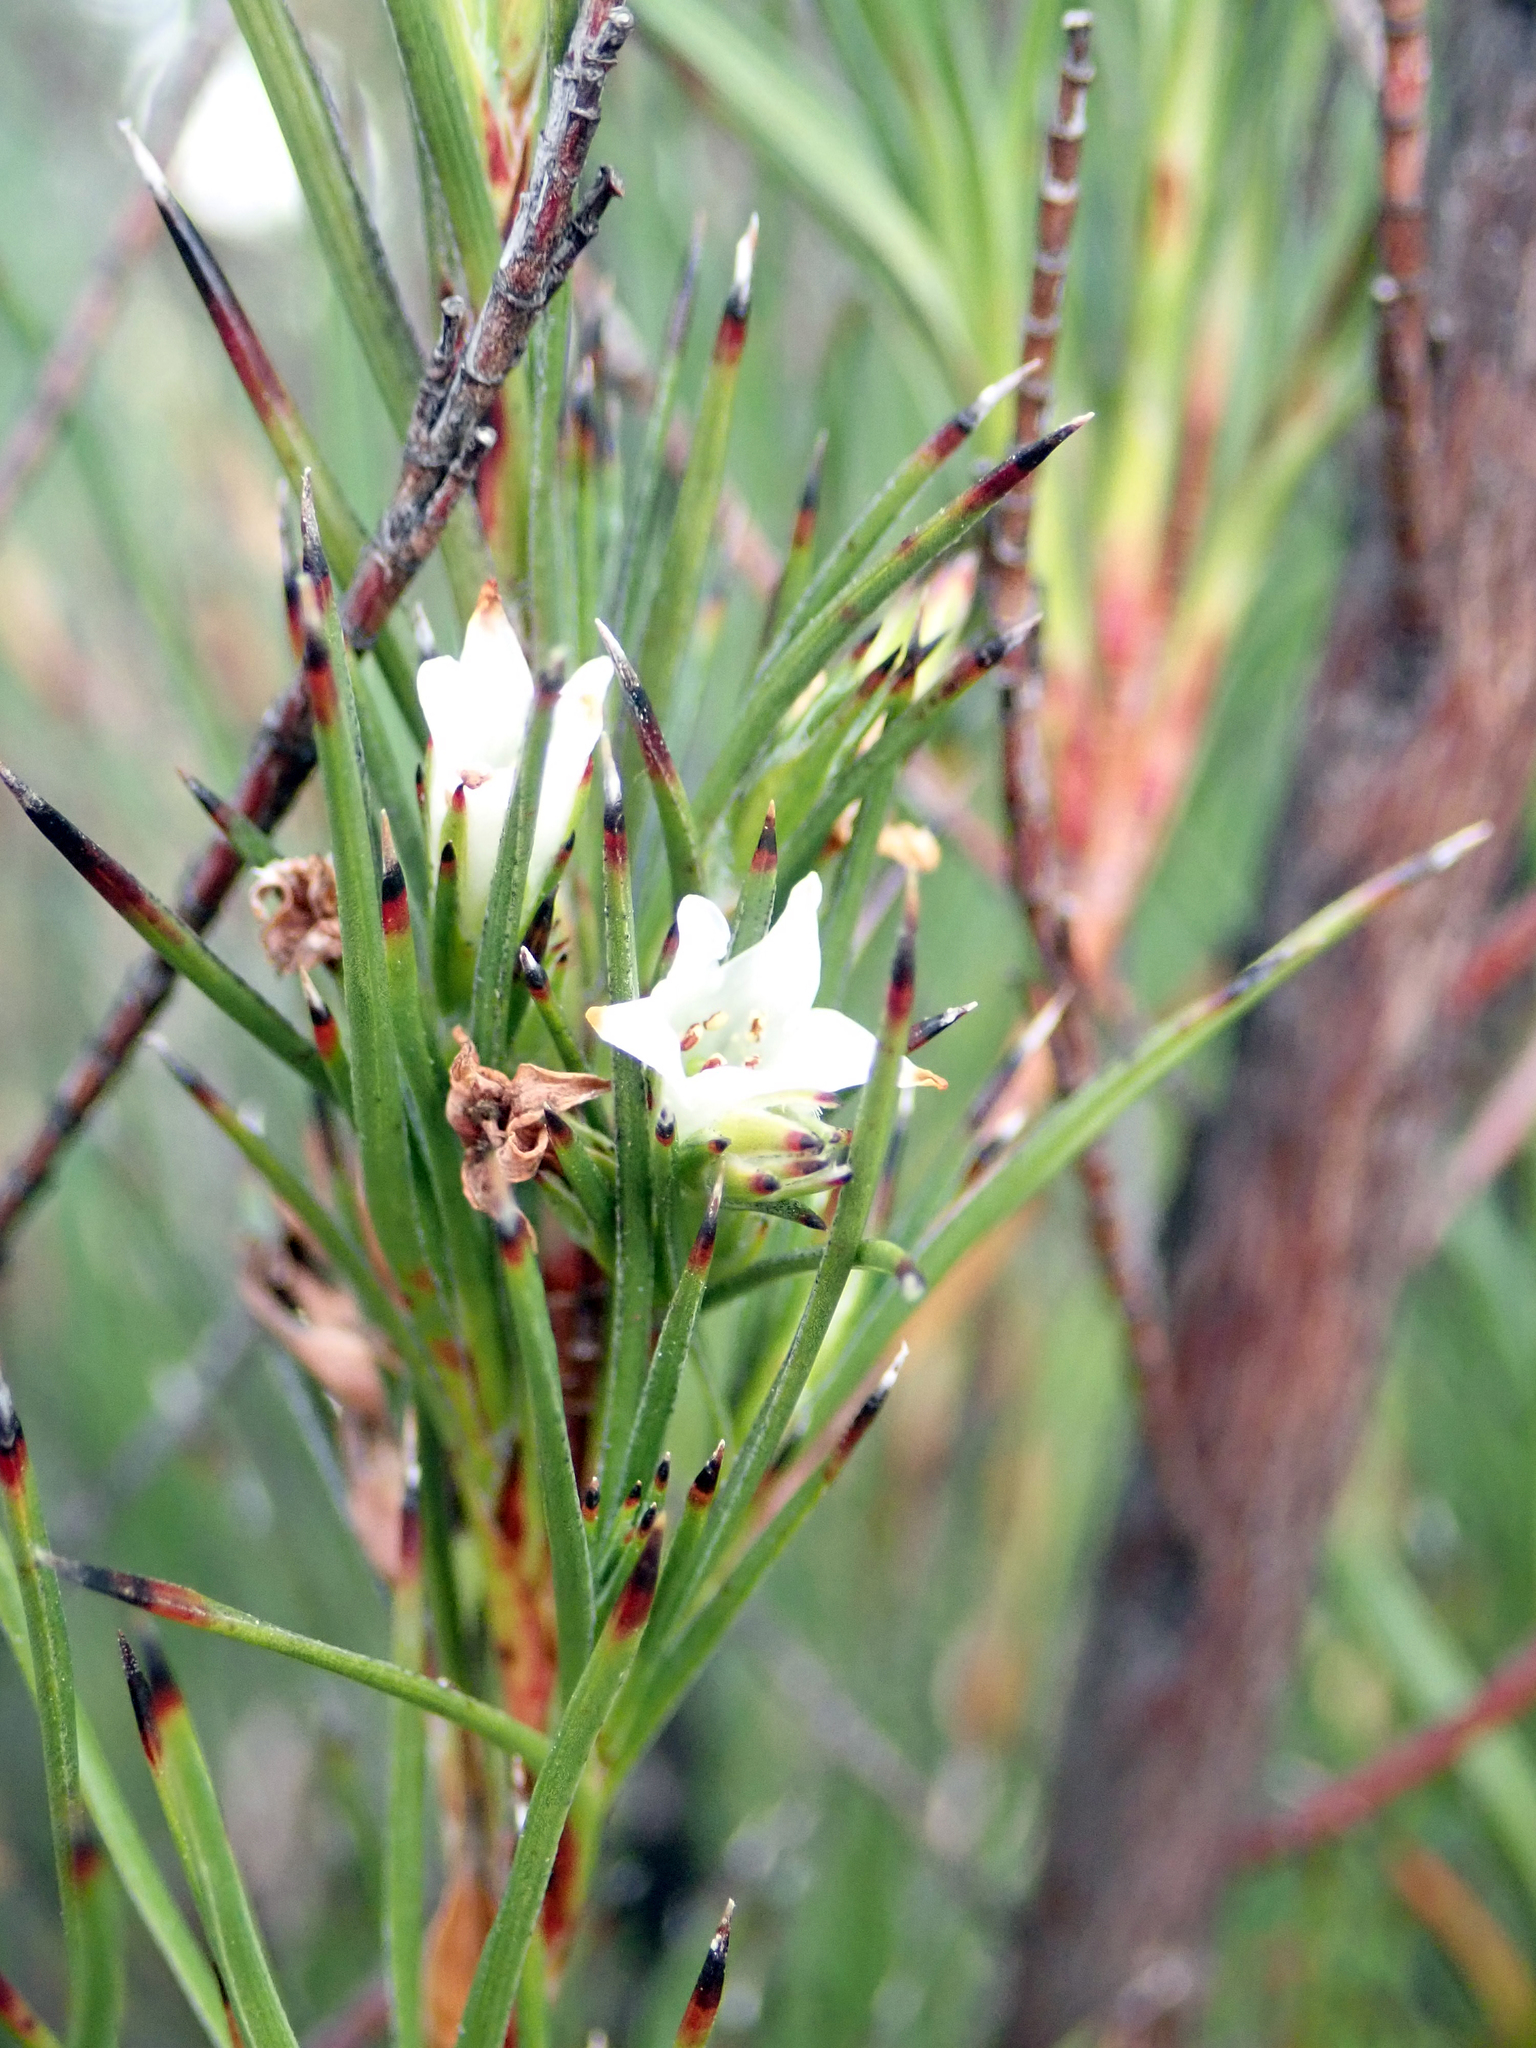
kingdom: Plantae
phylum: Tracheophyta
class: Magnoliopsida
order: Ericales
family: Ericaceae
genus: Dracophyllum
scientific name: Dracophyllum scoparium
